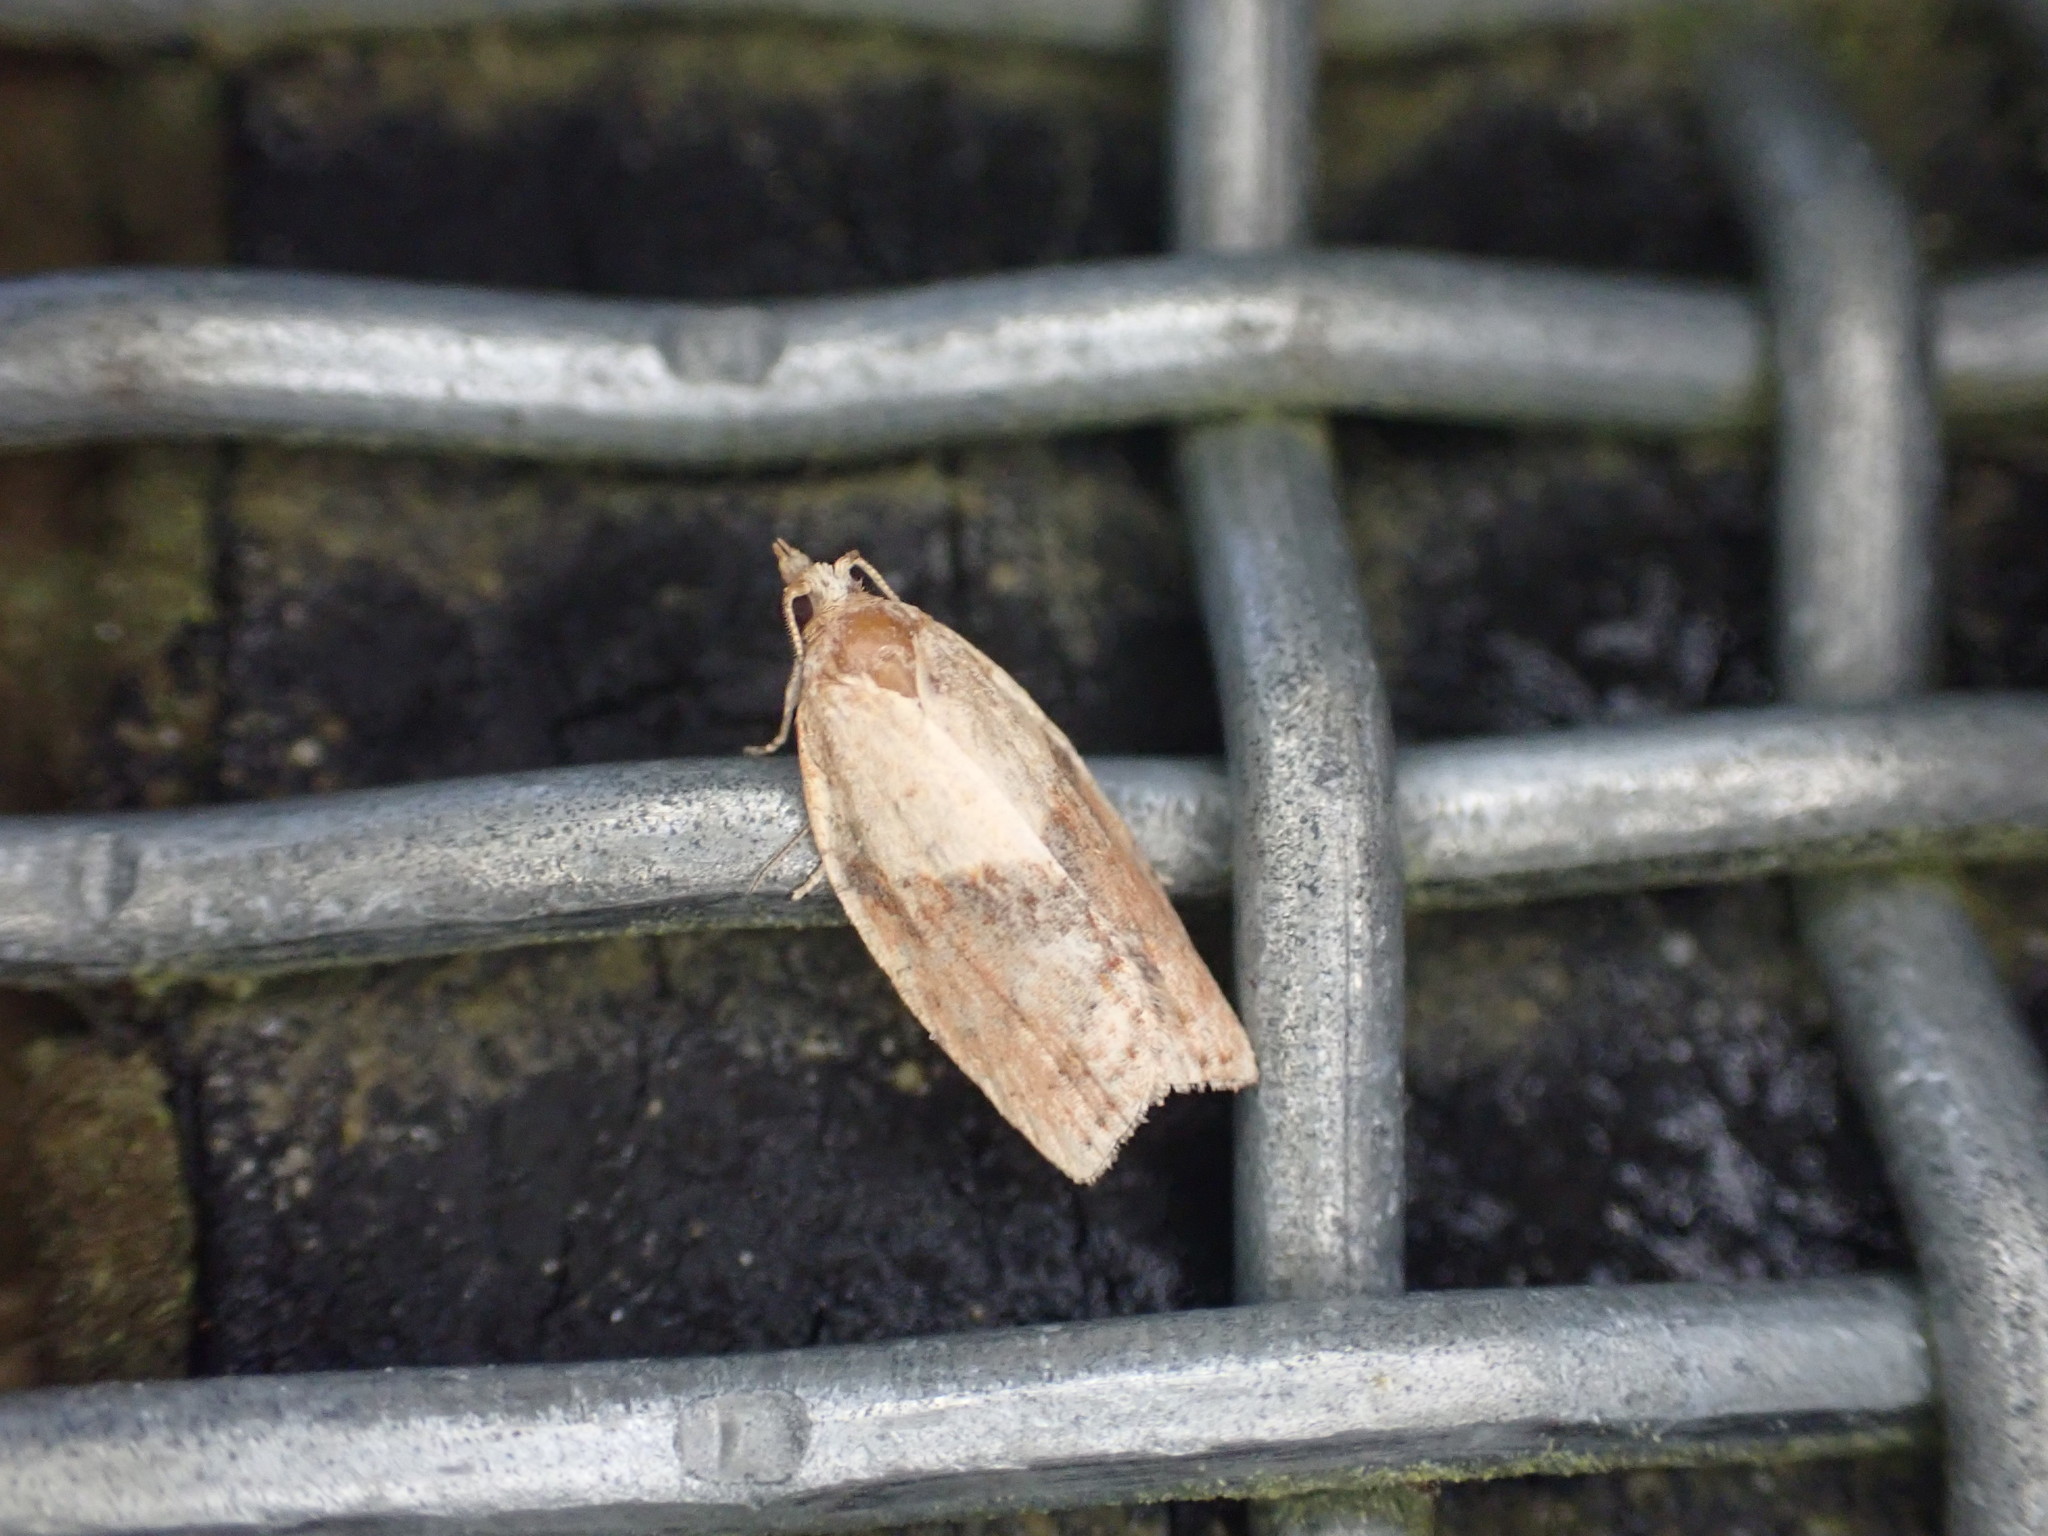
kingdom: Animalia
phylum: Arthropoda
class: Insecta
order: Lepidoptera
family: Tortricidae
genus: Epiphyas
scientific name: Epiphyas postvittana
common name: Light brown apple moth
